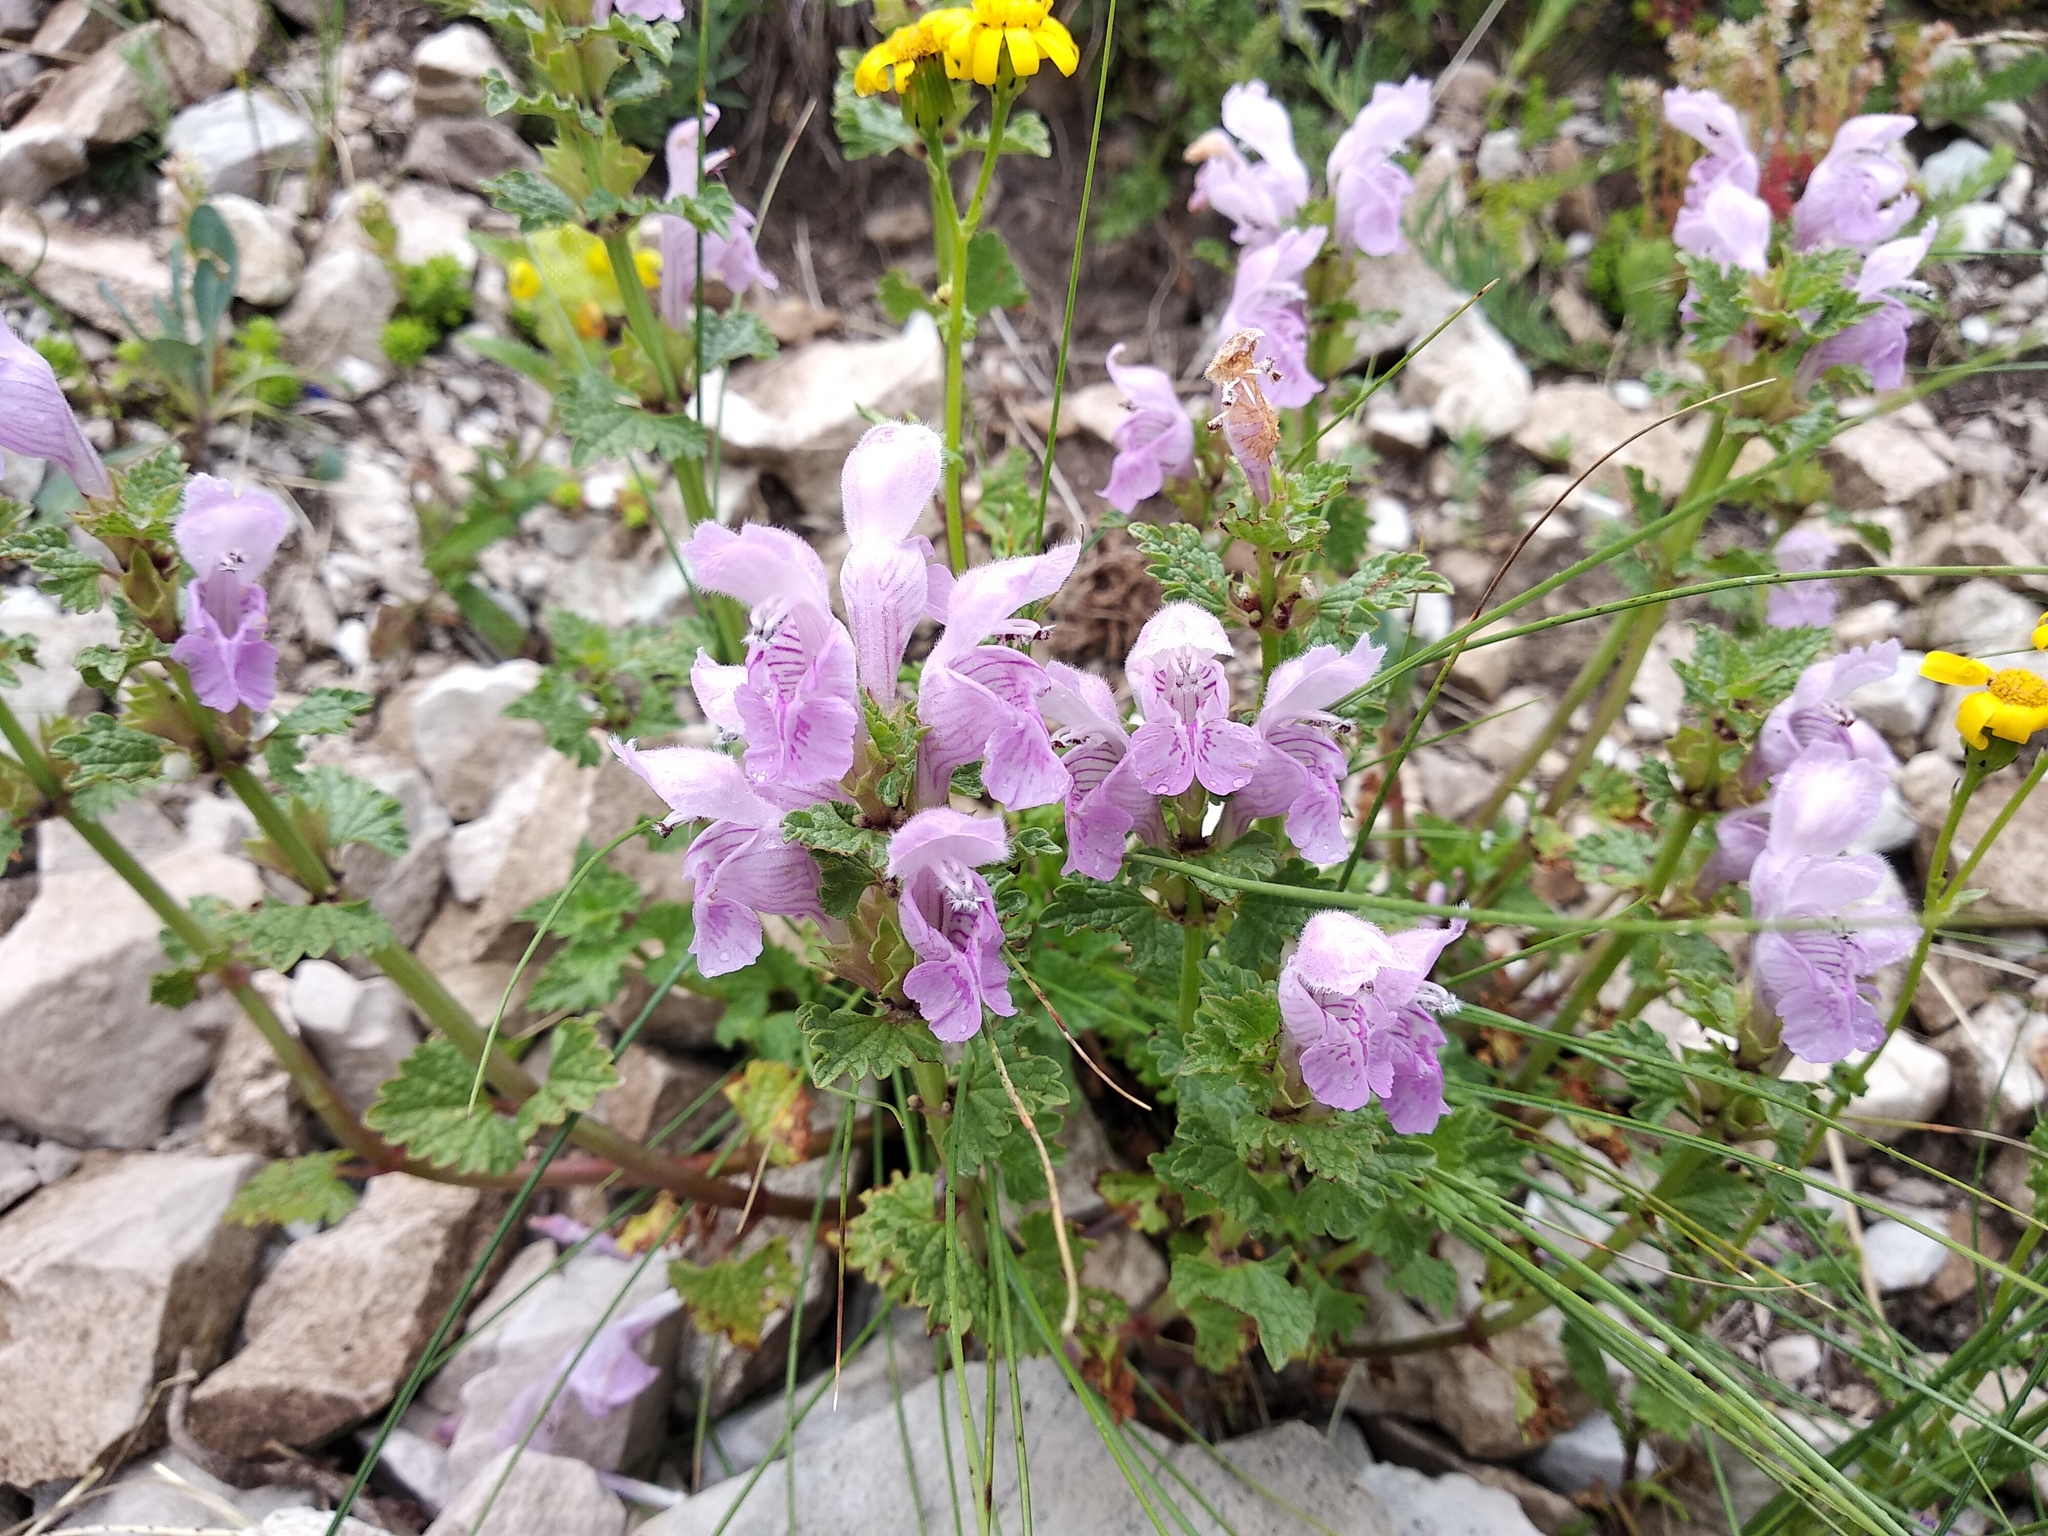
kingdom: Plantae
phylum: Tracheophyta
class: Magnoliopsida
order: Lamiales
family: Lamiaceae
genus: Lamium
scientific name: Lamium garganicum
